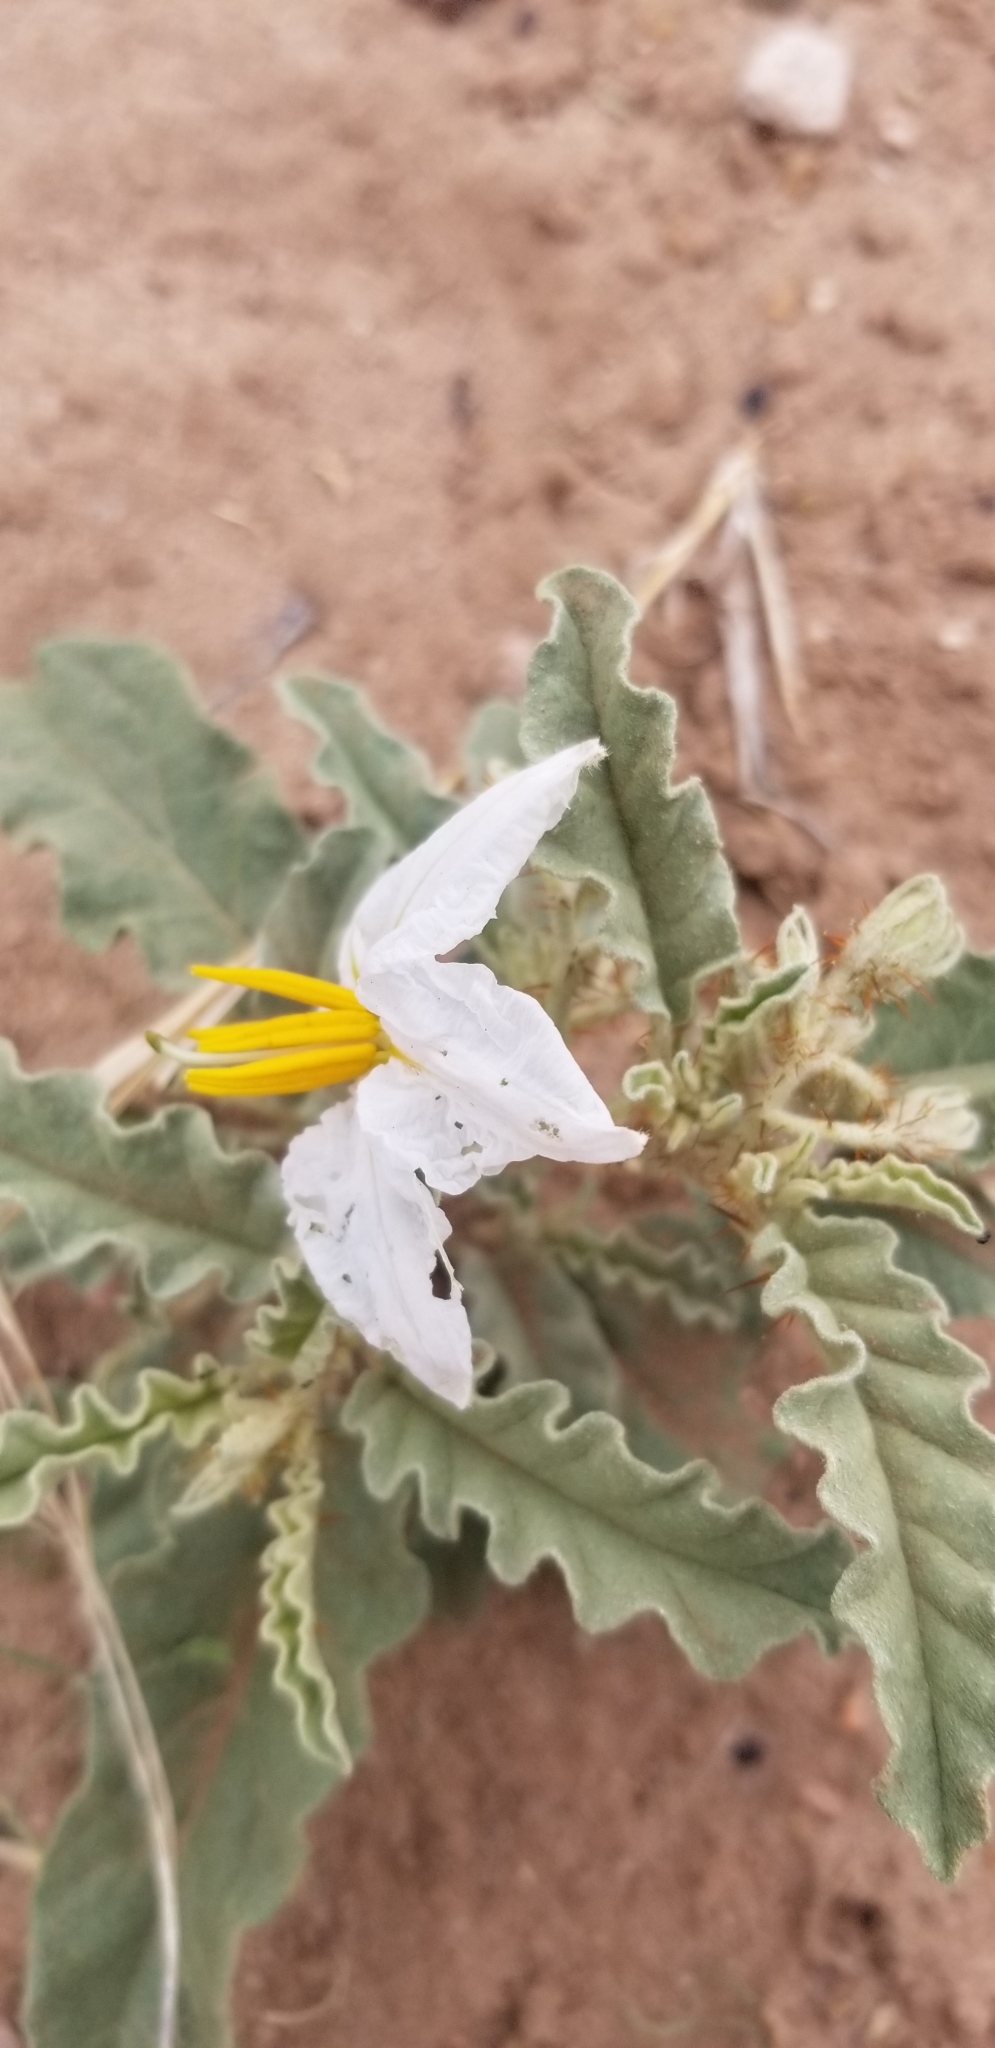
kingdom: Plantae
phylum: Tracheophyta
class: Magnoliopsida
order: Solanales
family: Solanaceae
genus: Solanum
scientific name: Solanum elaeagnifolium
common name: Silverleaf nightshade
